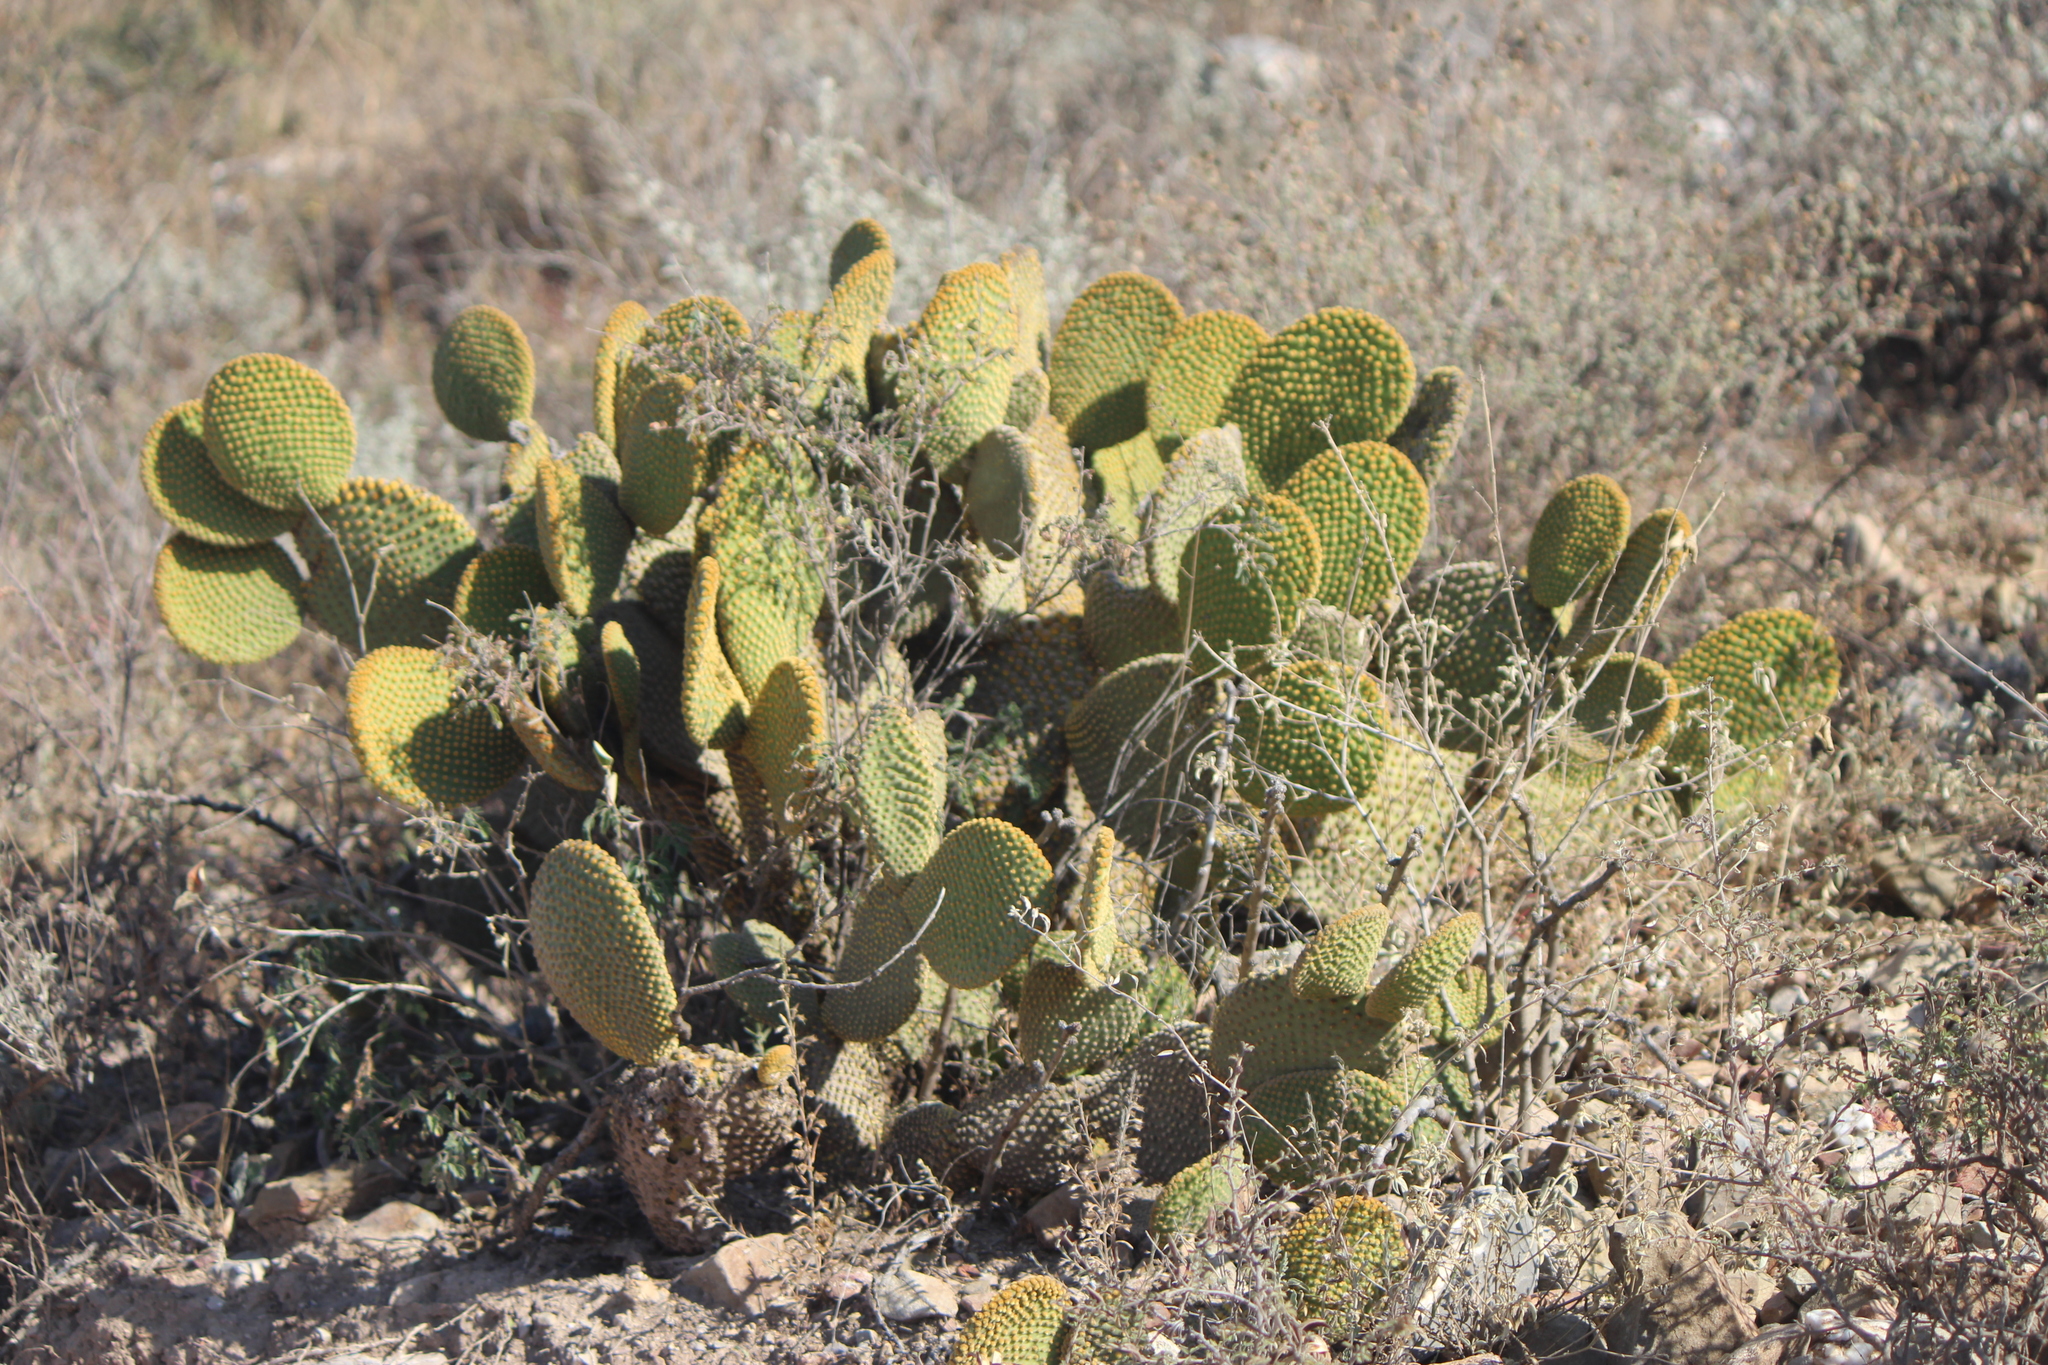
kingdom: Plantae
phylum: Tracheophyta
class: Magnoliopsida
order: Caryophyllales
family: Cactaceae
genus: Opuntia
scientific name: Opuntia microdasys
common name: Angel's-wings
